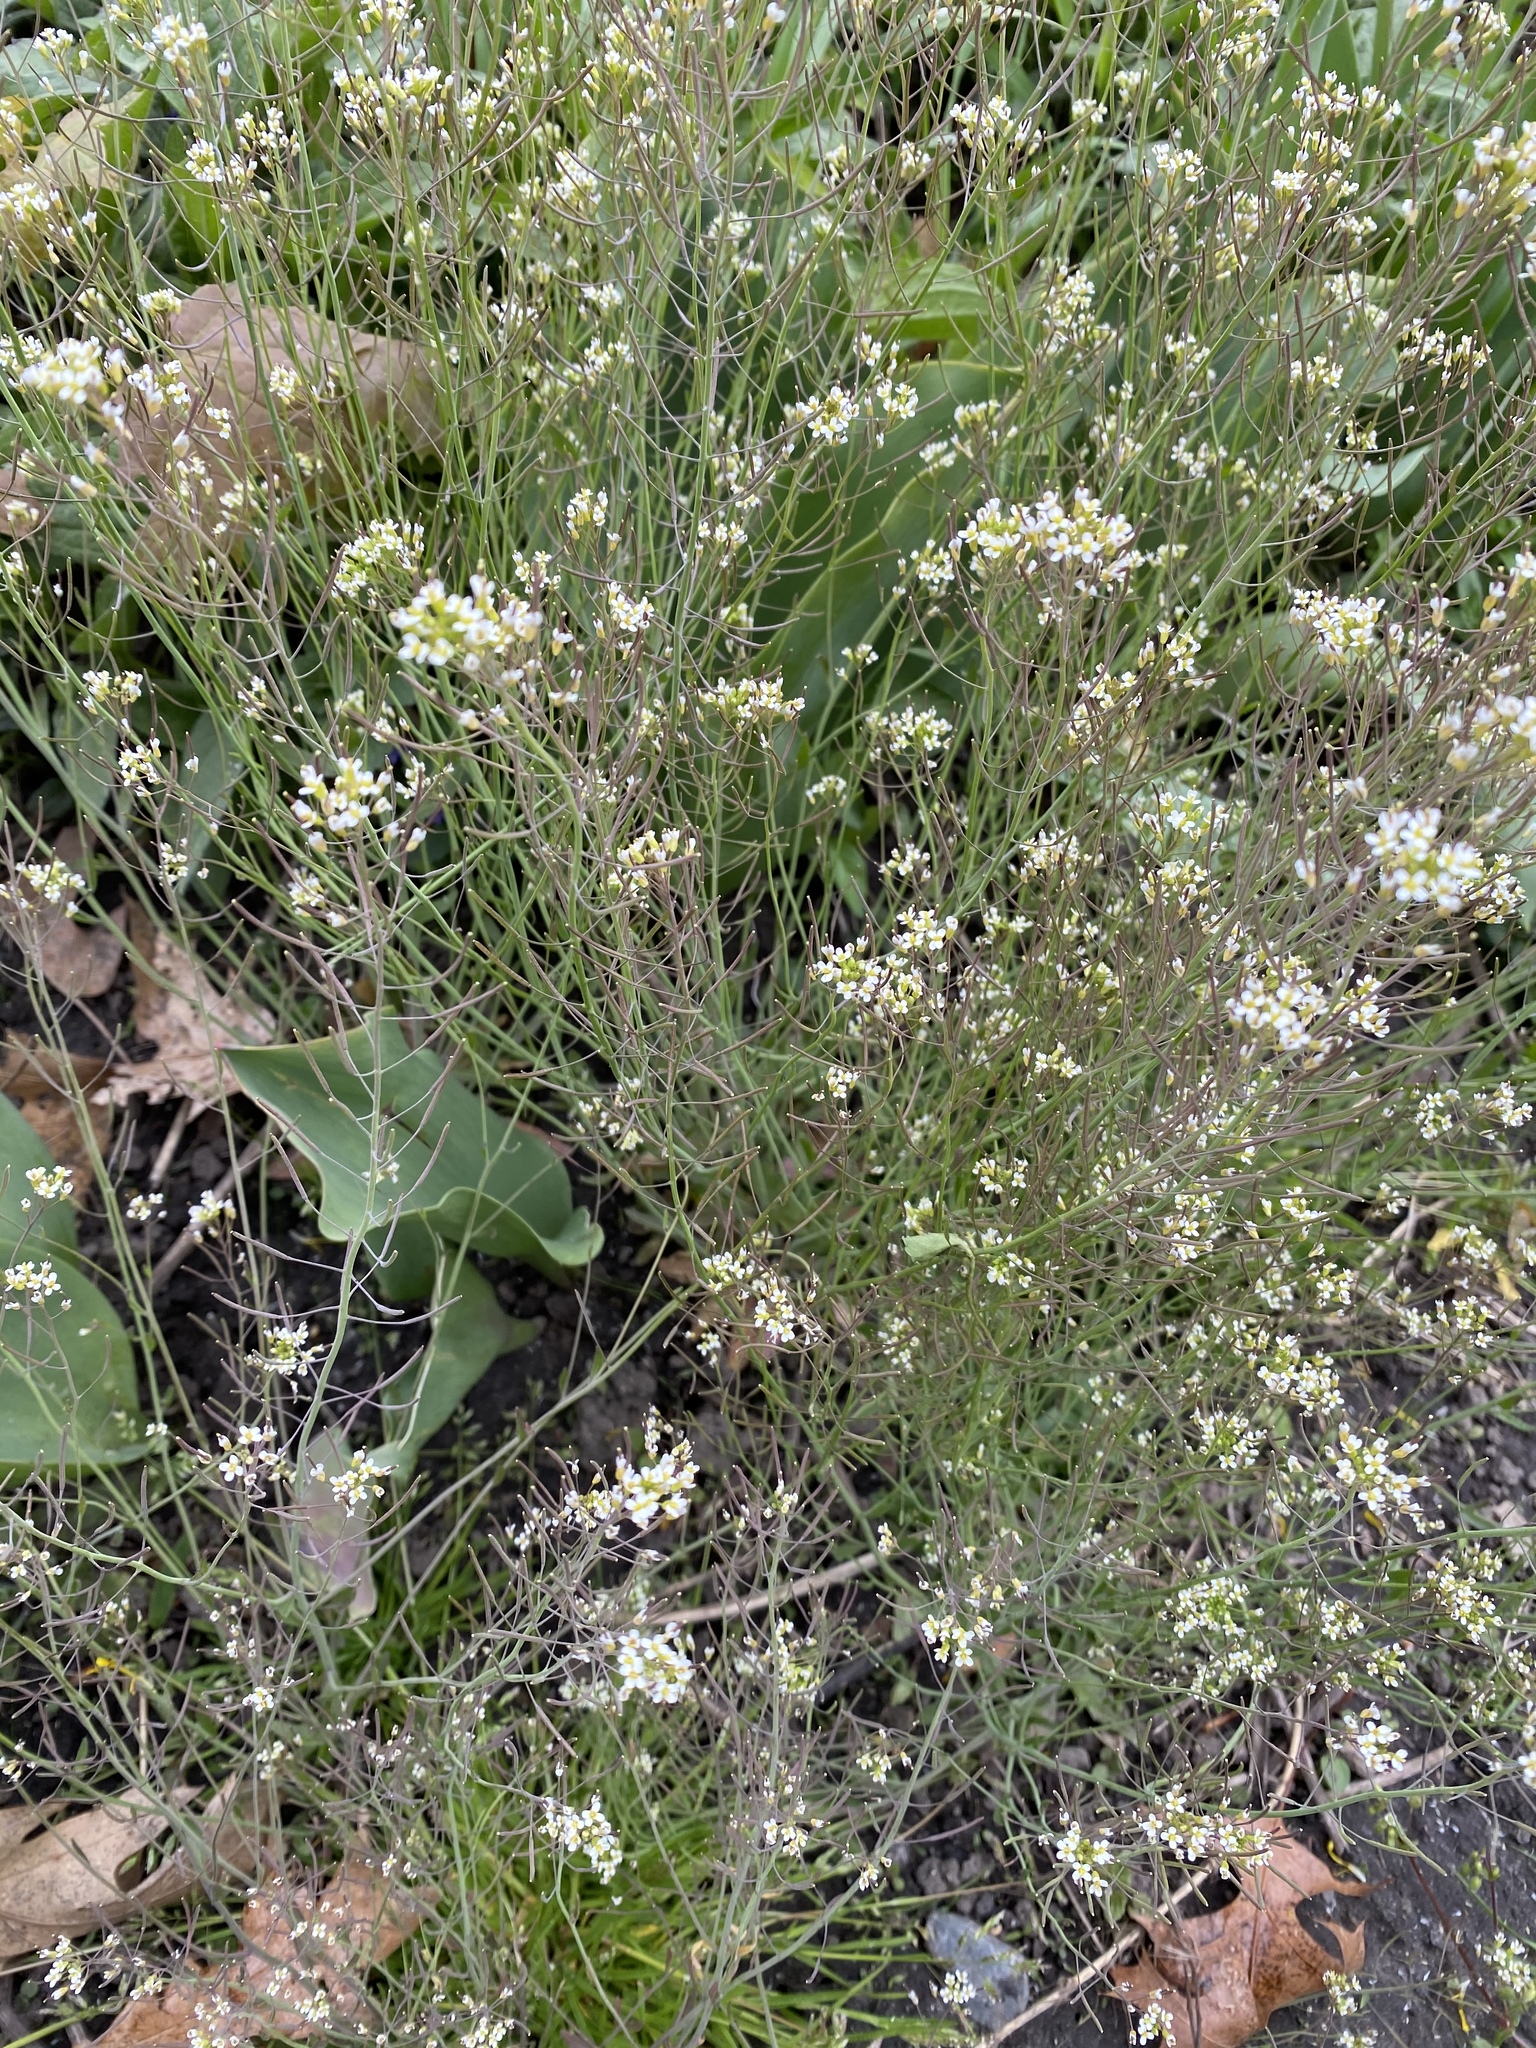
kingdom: Plantae
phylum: Tracheophyta
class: Magnoliopsida
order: Brassicales
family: Brassicaceae
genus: Arabidopsis
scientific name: Arabidopsis thaliana
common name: Thale cress
